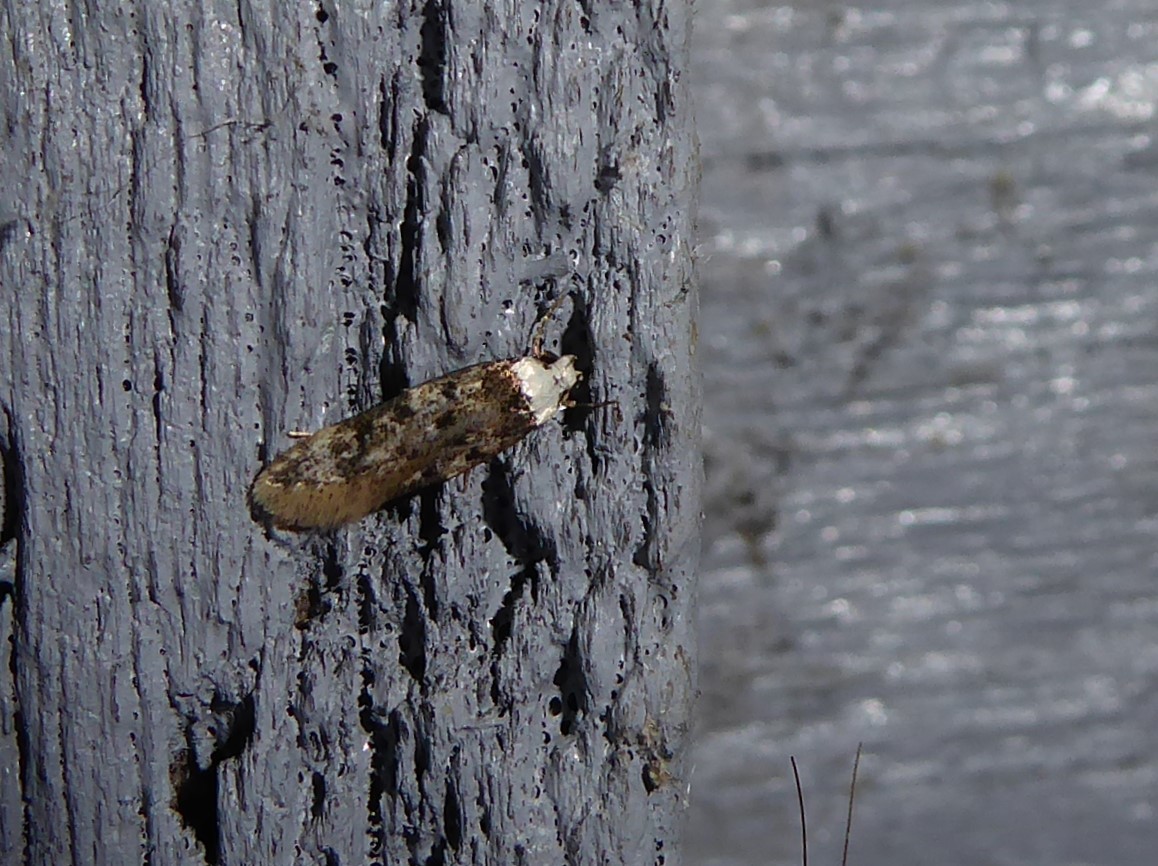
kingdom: Animalia
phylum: Arthropoda
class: Insecta
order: Lepidoptera
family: Oecophoridae
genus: Endrosis
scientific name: Endrosis sarcitrella
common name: White-shouldered house moth
